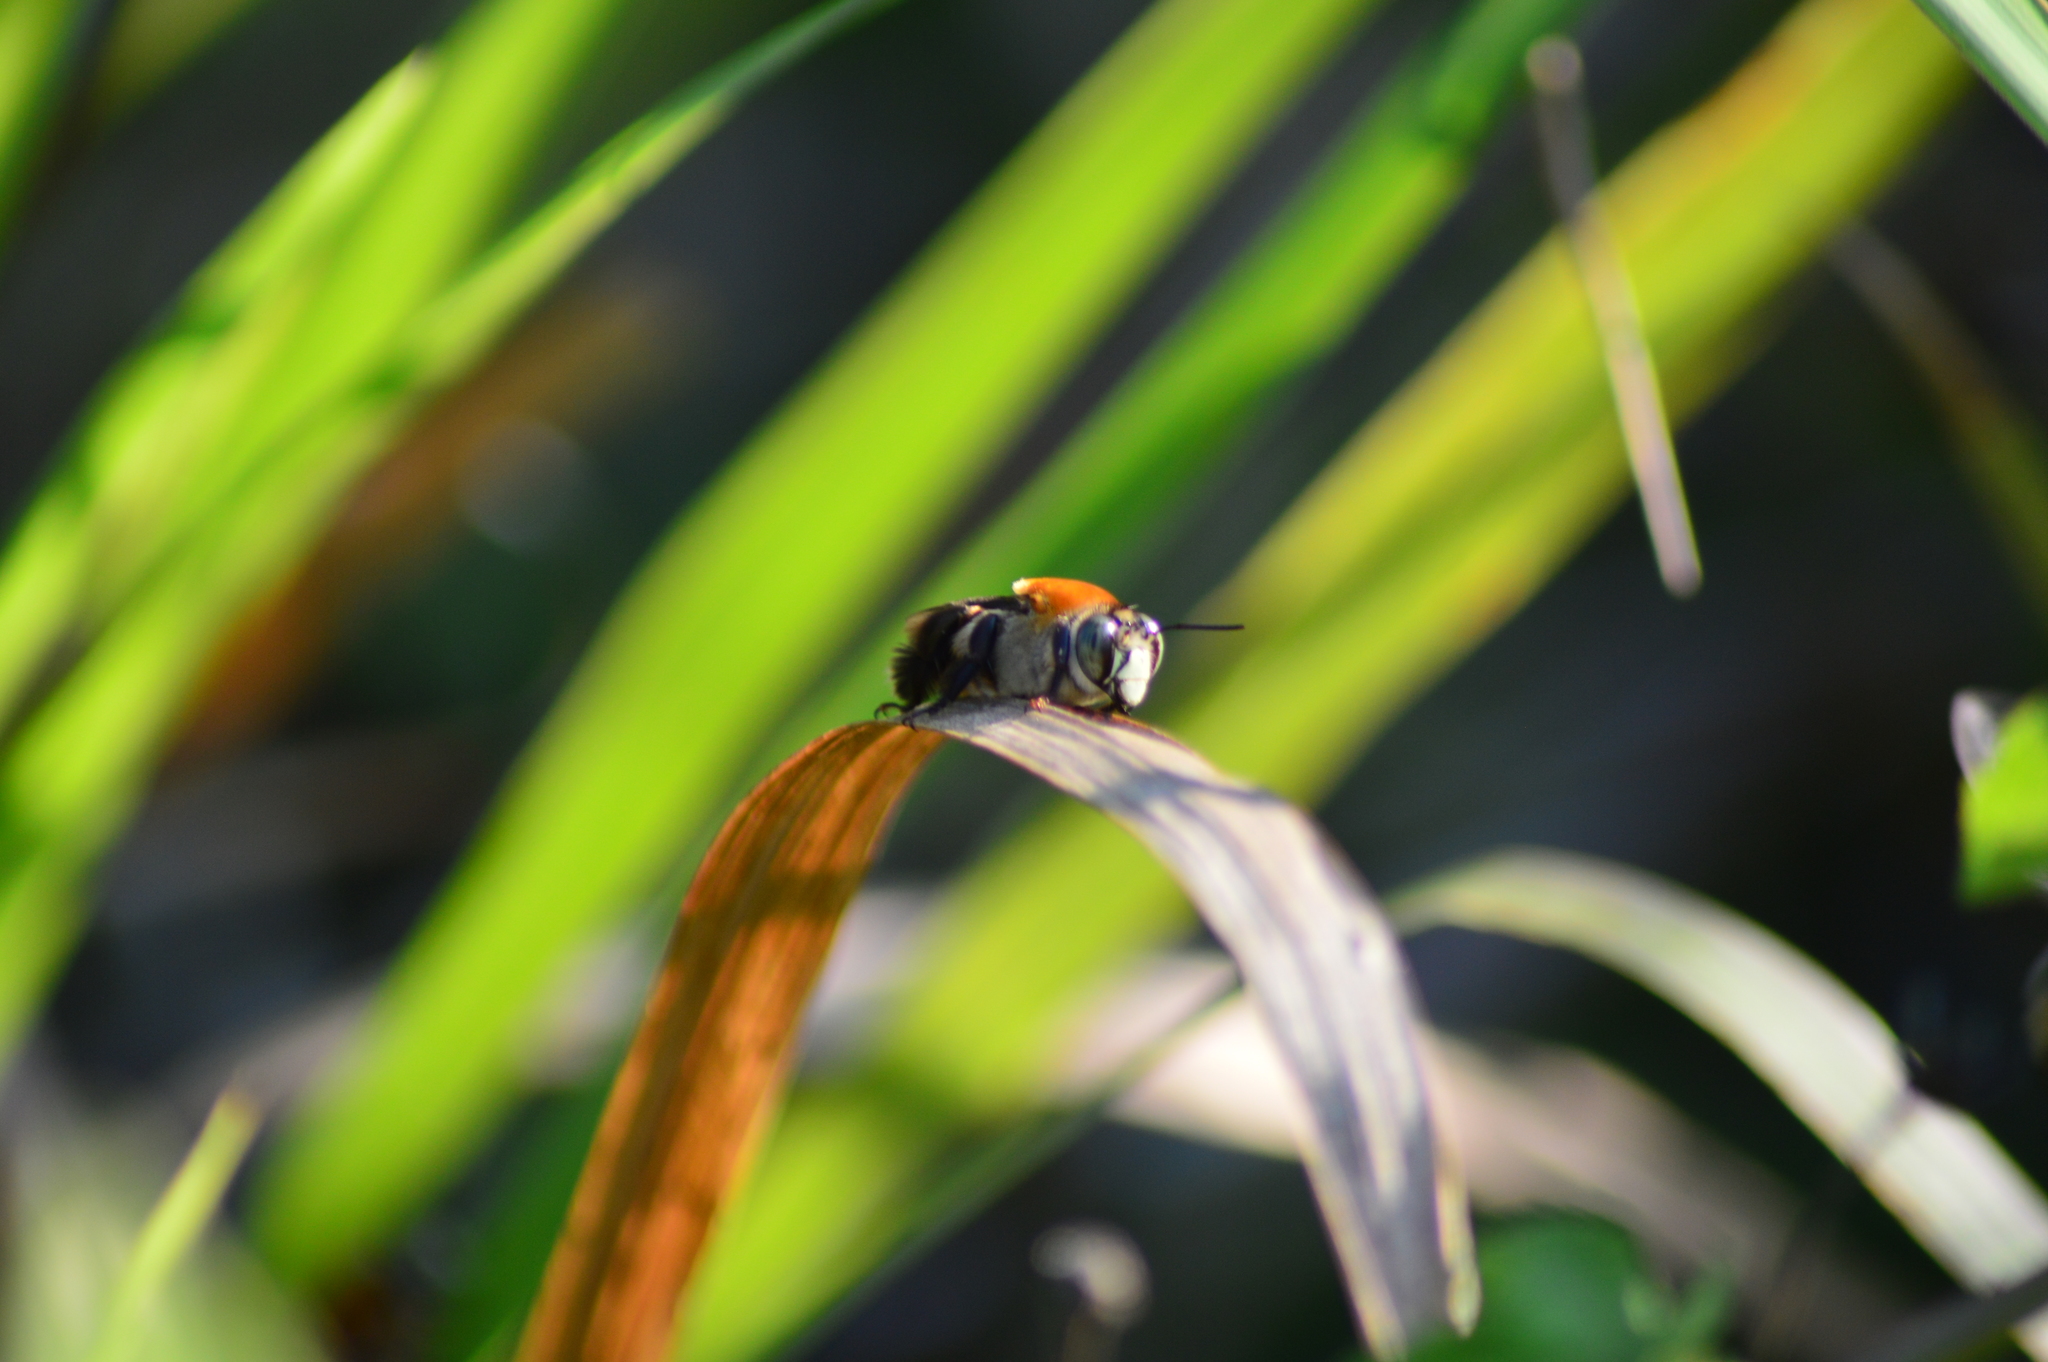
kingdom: Animalia
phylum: Arthropoda
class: Insecta
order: Hymenoptera
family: Apidae
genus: Centris
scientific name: Centris decolorata
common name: Crazy beach bee
